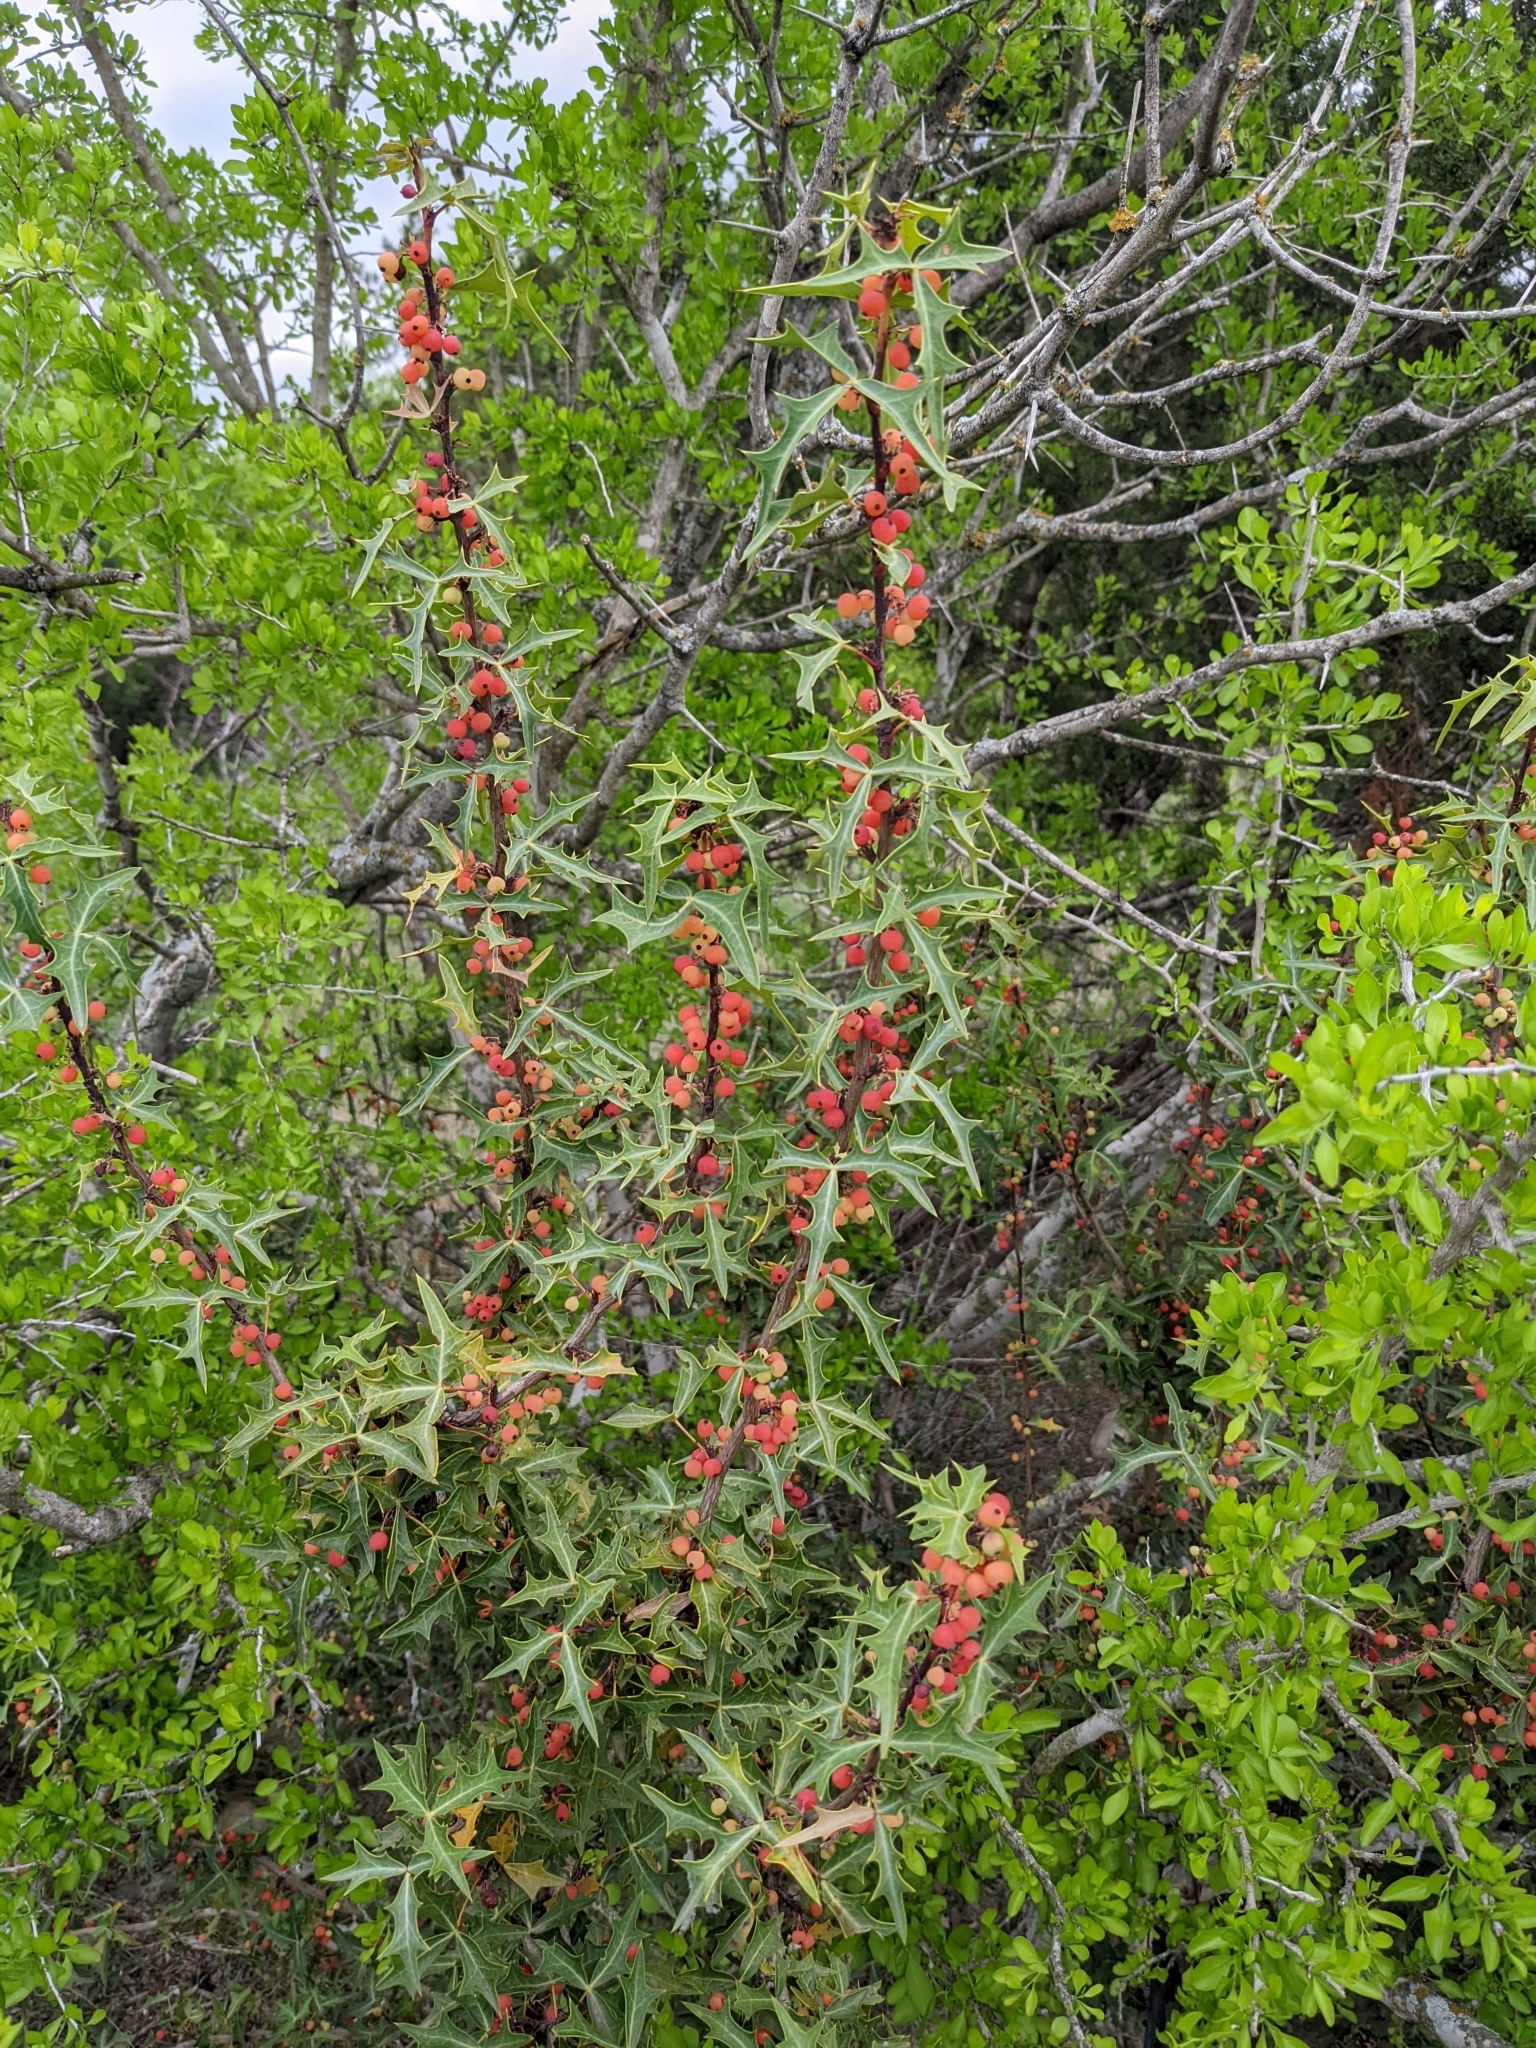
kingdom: Plantae
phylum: Tracheophyta
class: Magnoliopsida
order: Ranunculales
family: Berberidaceae
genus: Alloberberis
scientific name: Alloberberis trifoliolata
